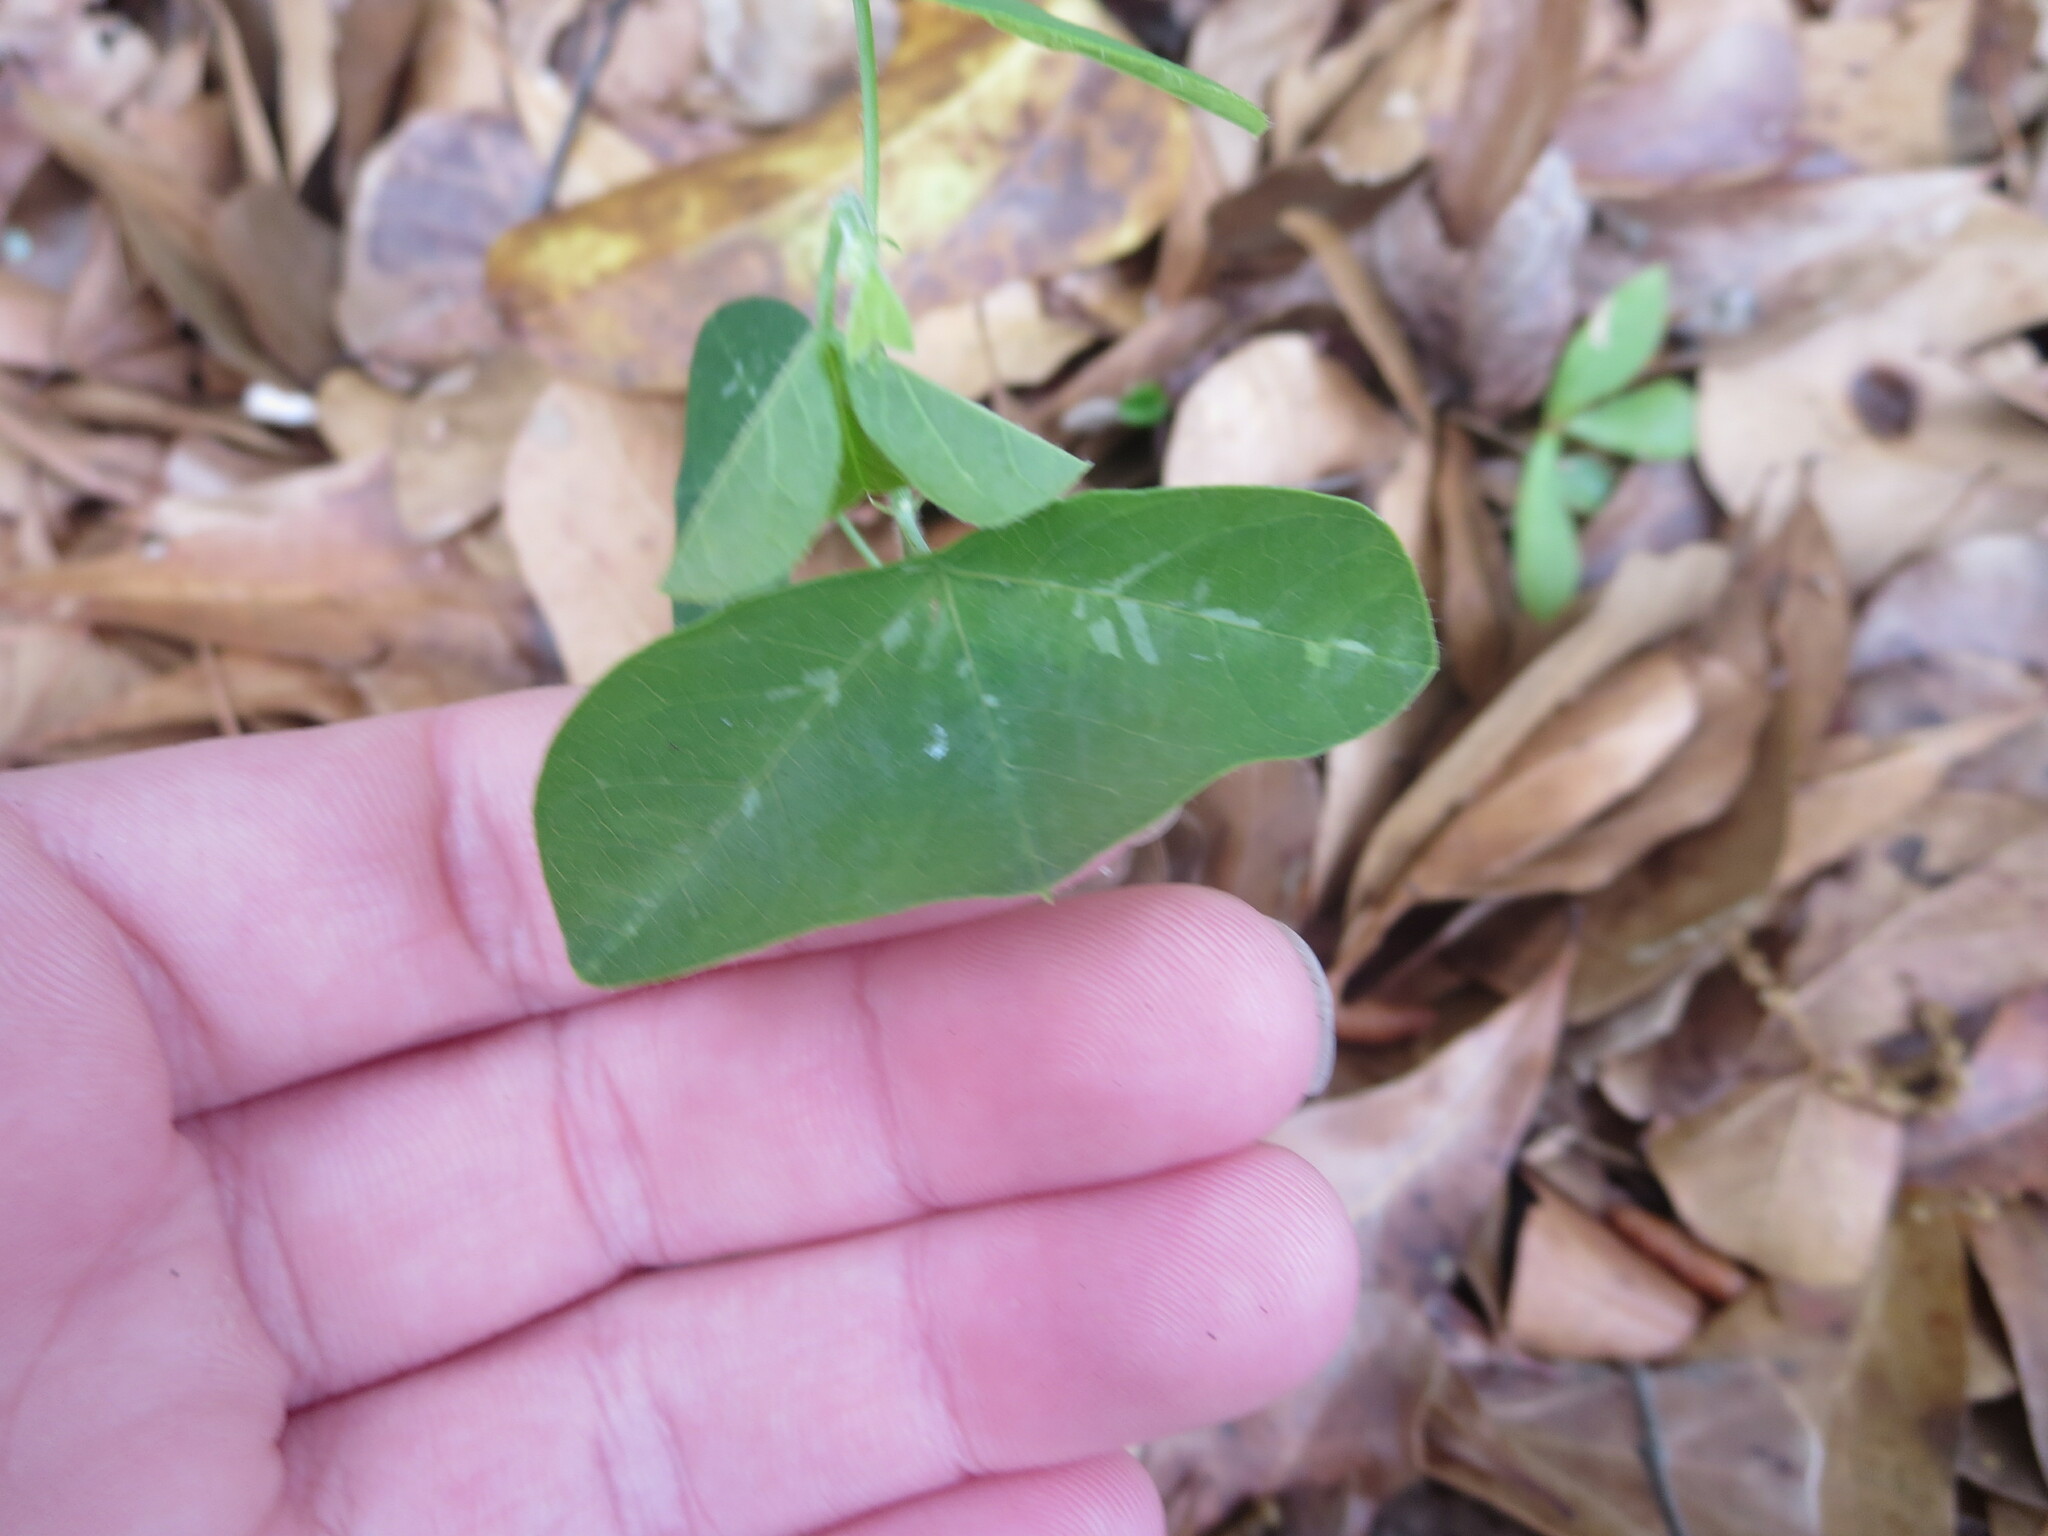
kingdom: Plantae
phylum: Tracheophyta
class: Magnoliopsida
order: Malpighiales
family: Passifloraceae
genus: Passiflora
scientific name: Passiflora lutea
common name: Yellow passionflower
